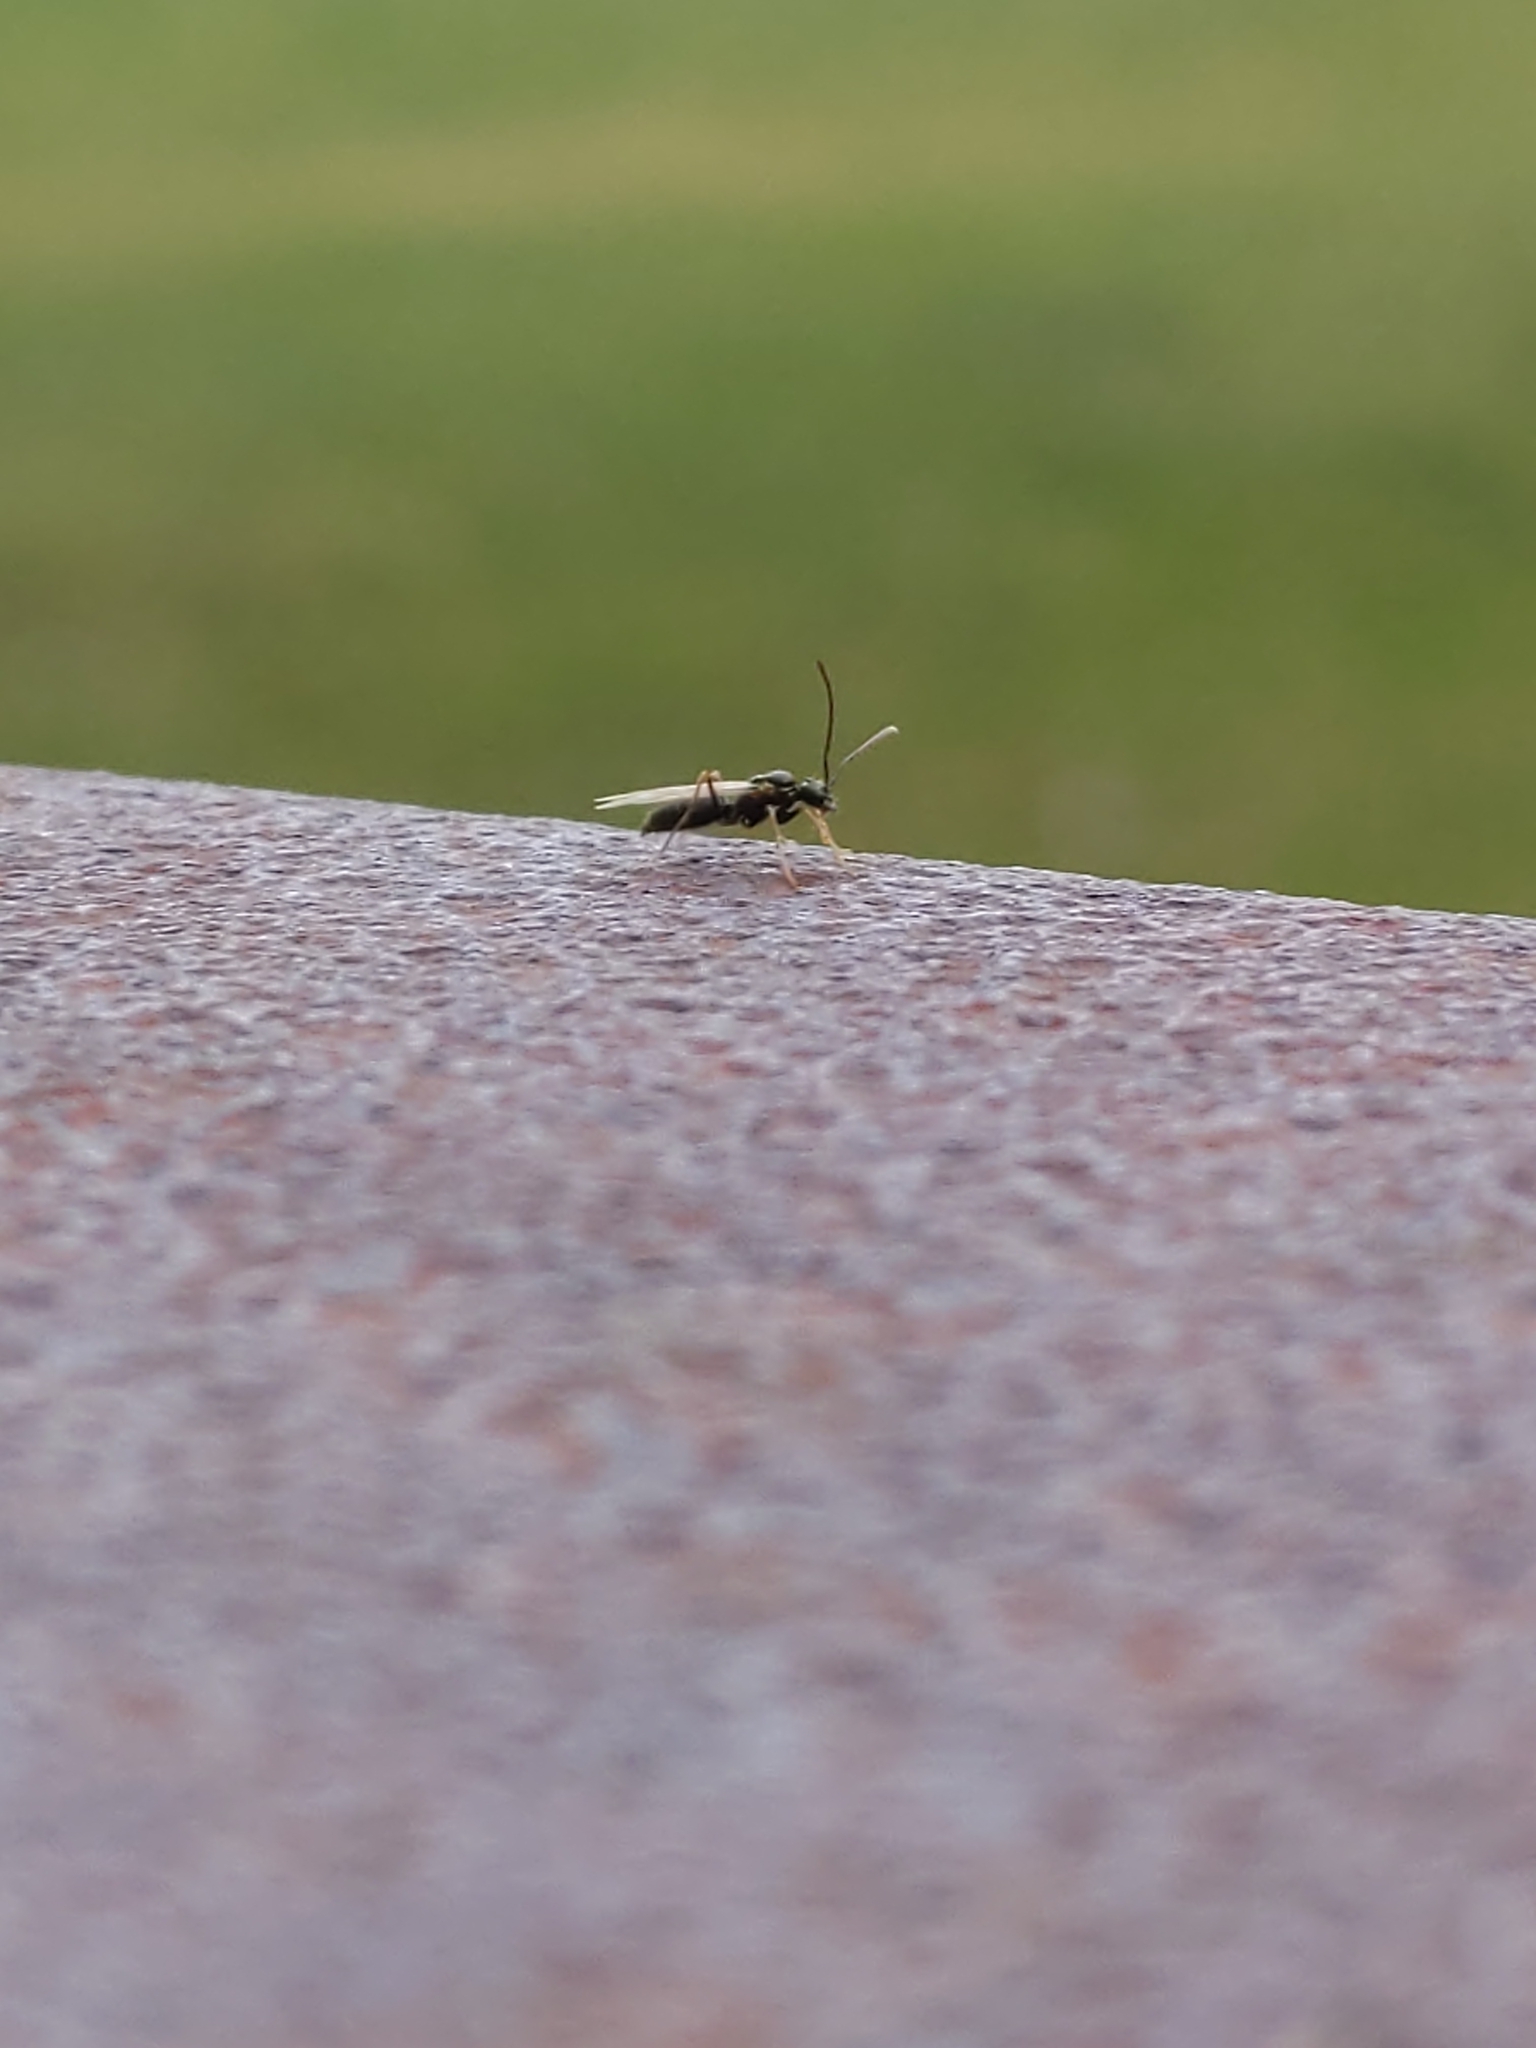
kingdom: Animalia
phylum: Arthropoda
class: Insecta
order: Hymenoptera
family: Formicidae
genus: Prenolepis
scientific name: Prenolepis imparis
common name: Small honey ant
